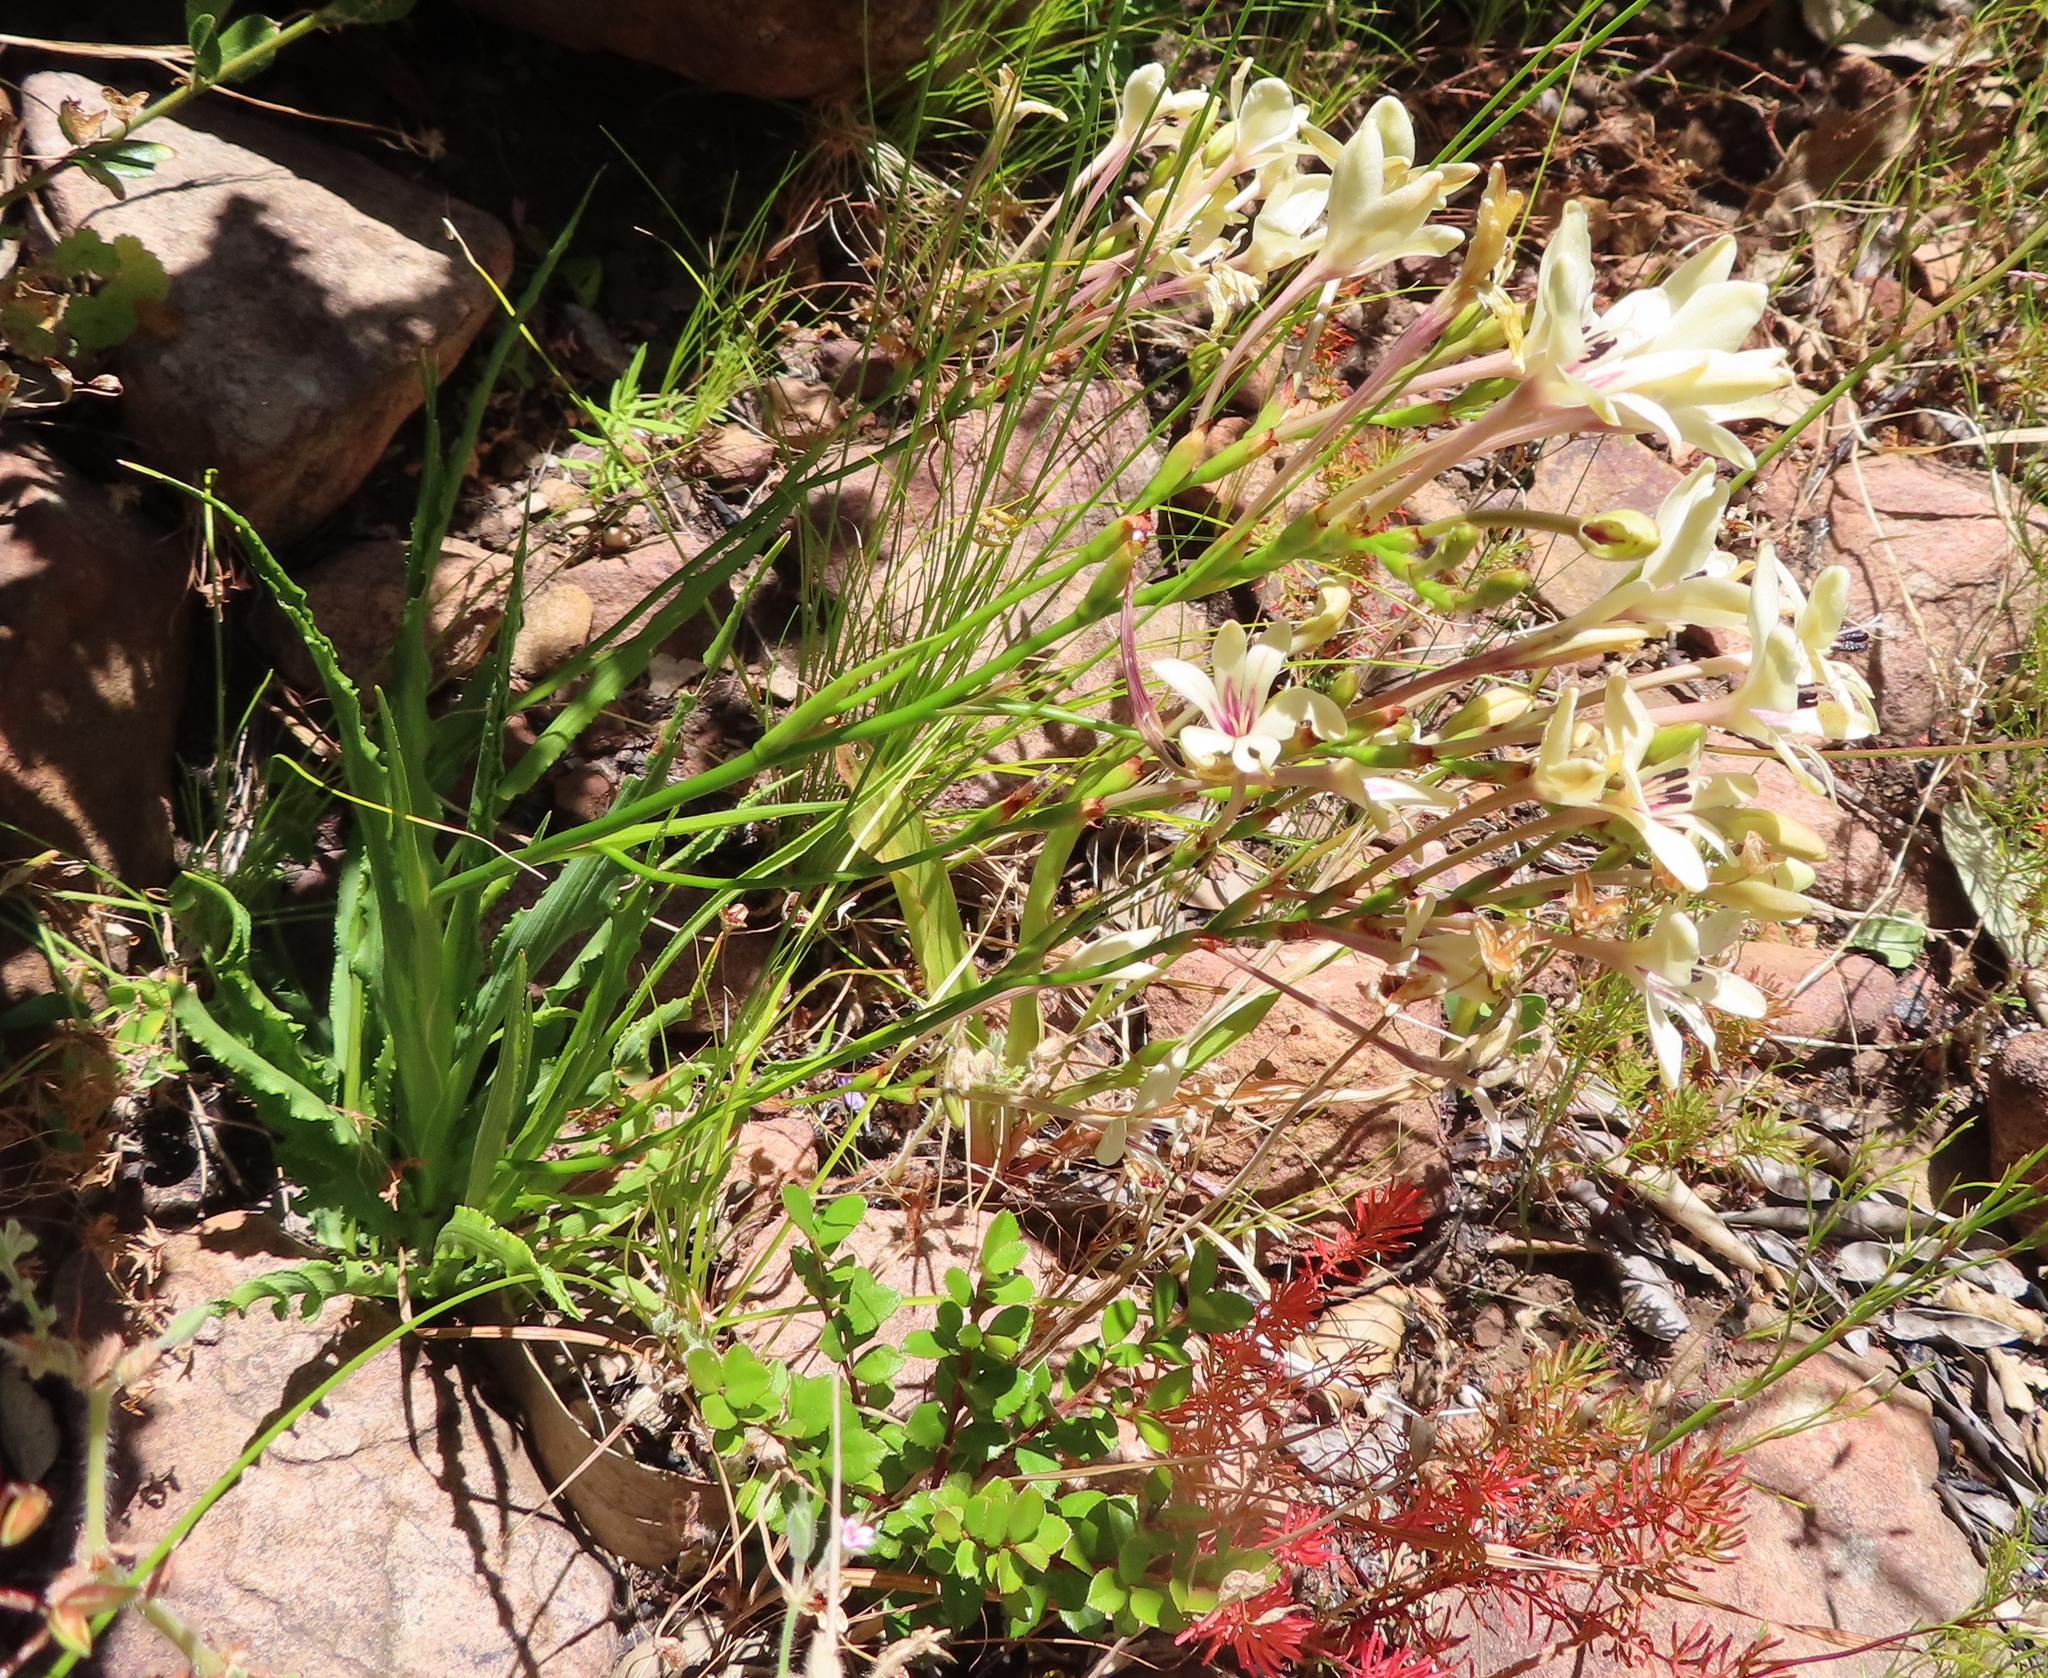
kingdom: Plantae
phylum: Tracheophyta
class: Liliopsida
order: Asparagales
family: Iridaceae
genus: Tritonia
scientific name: Tritonia undulata
